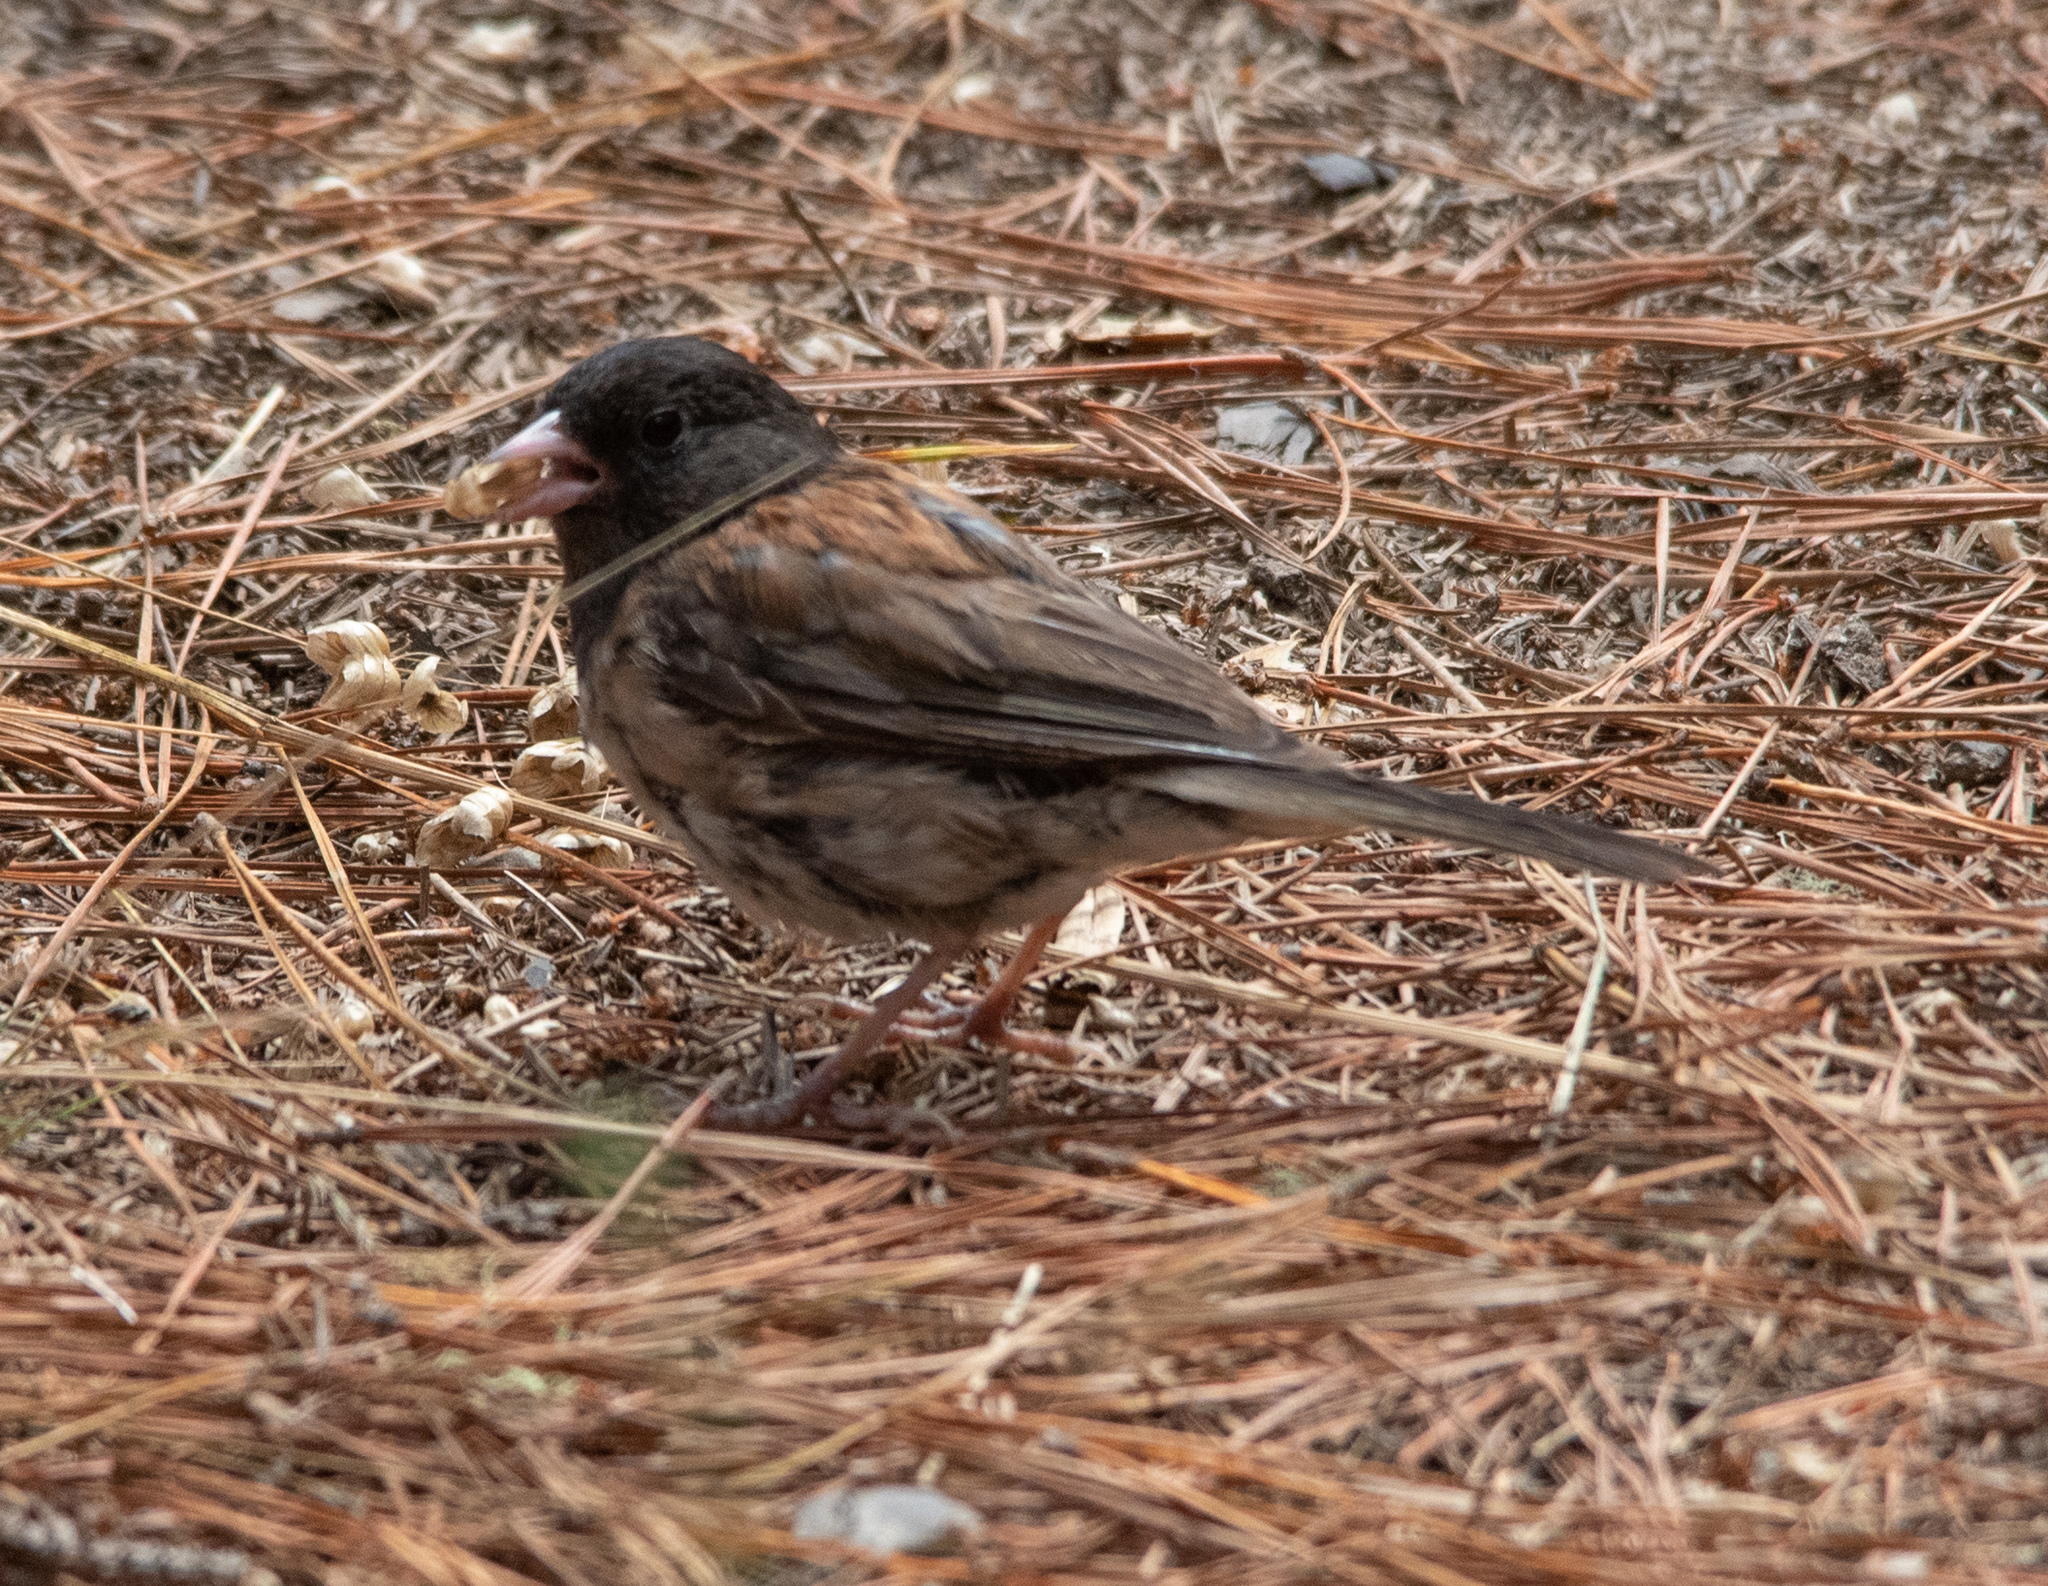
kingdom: Animalia
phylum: Chordata
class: Aves
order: Passeriformes
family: Passerellidae
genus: Junco
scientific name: Junco hyemalis
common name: Dark-eyed junco
